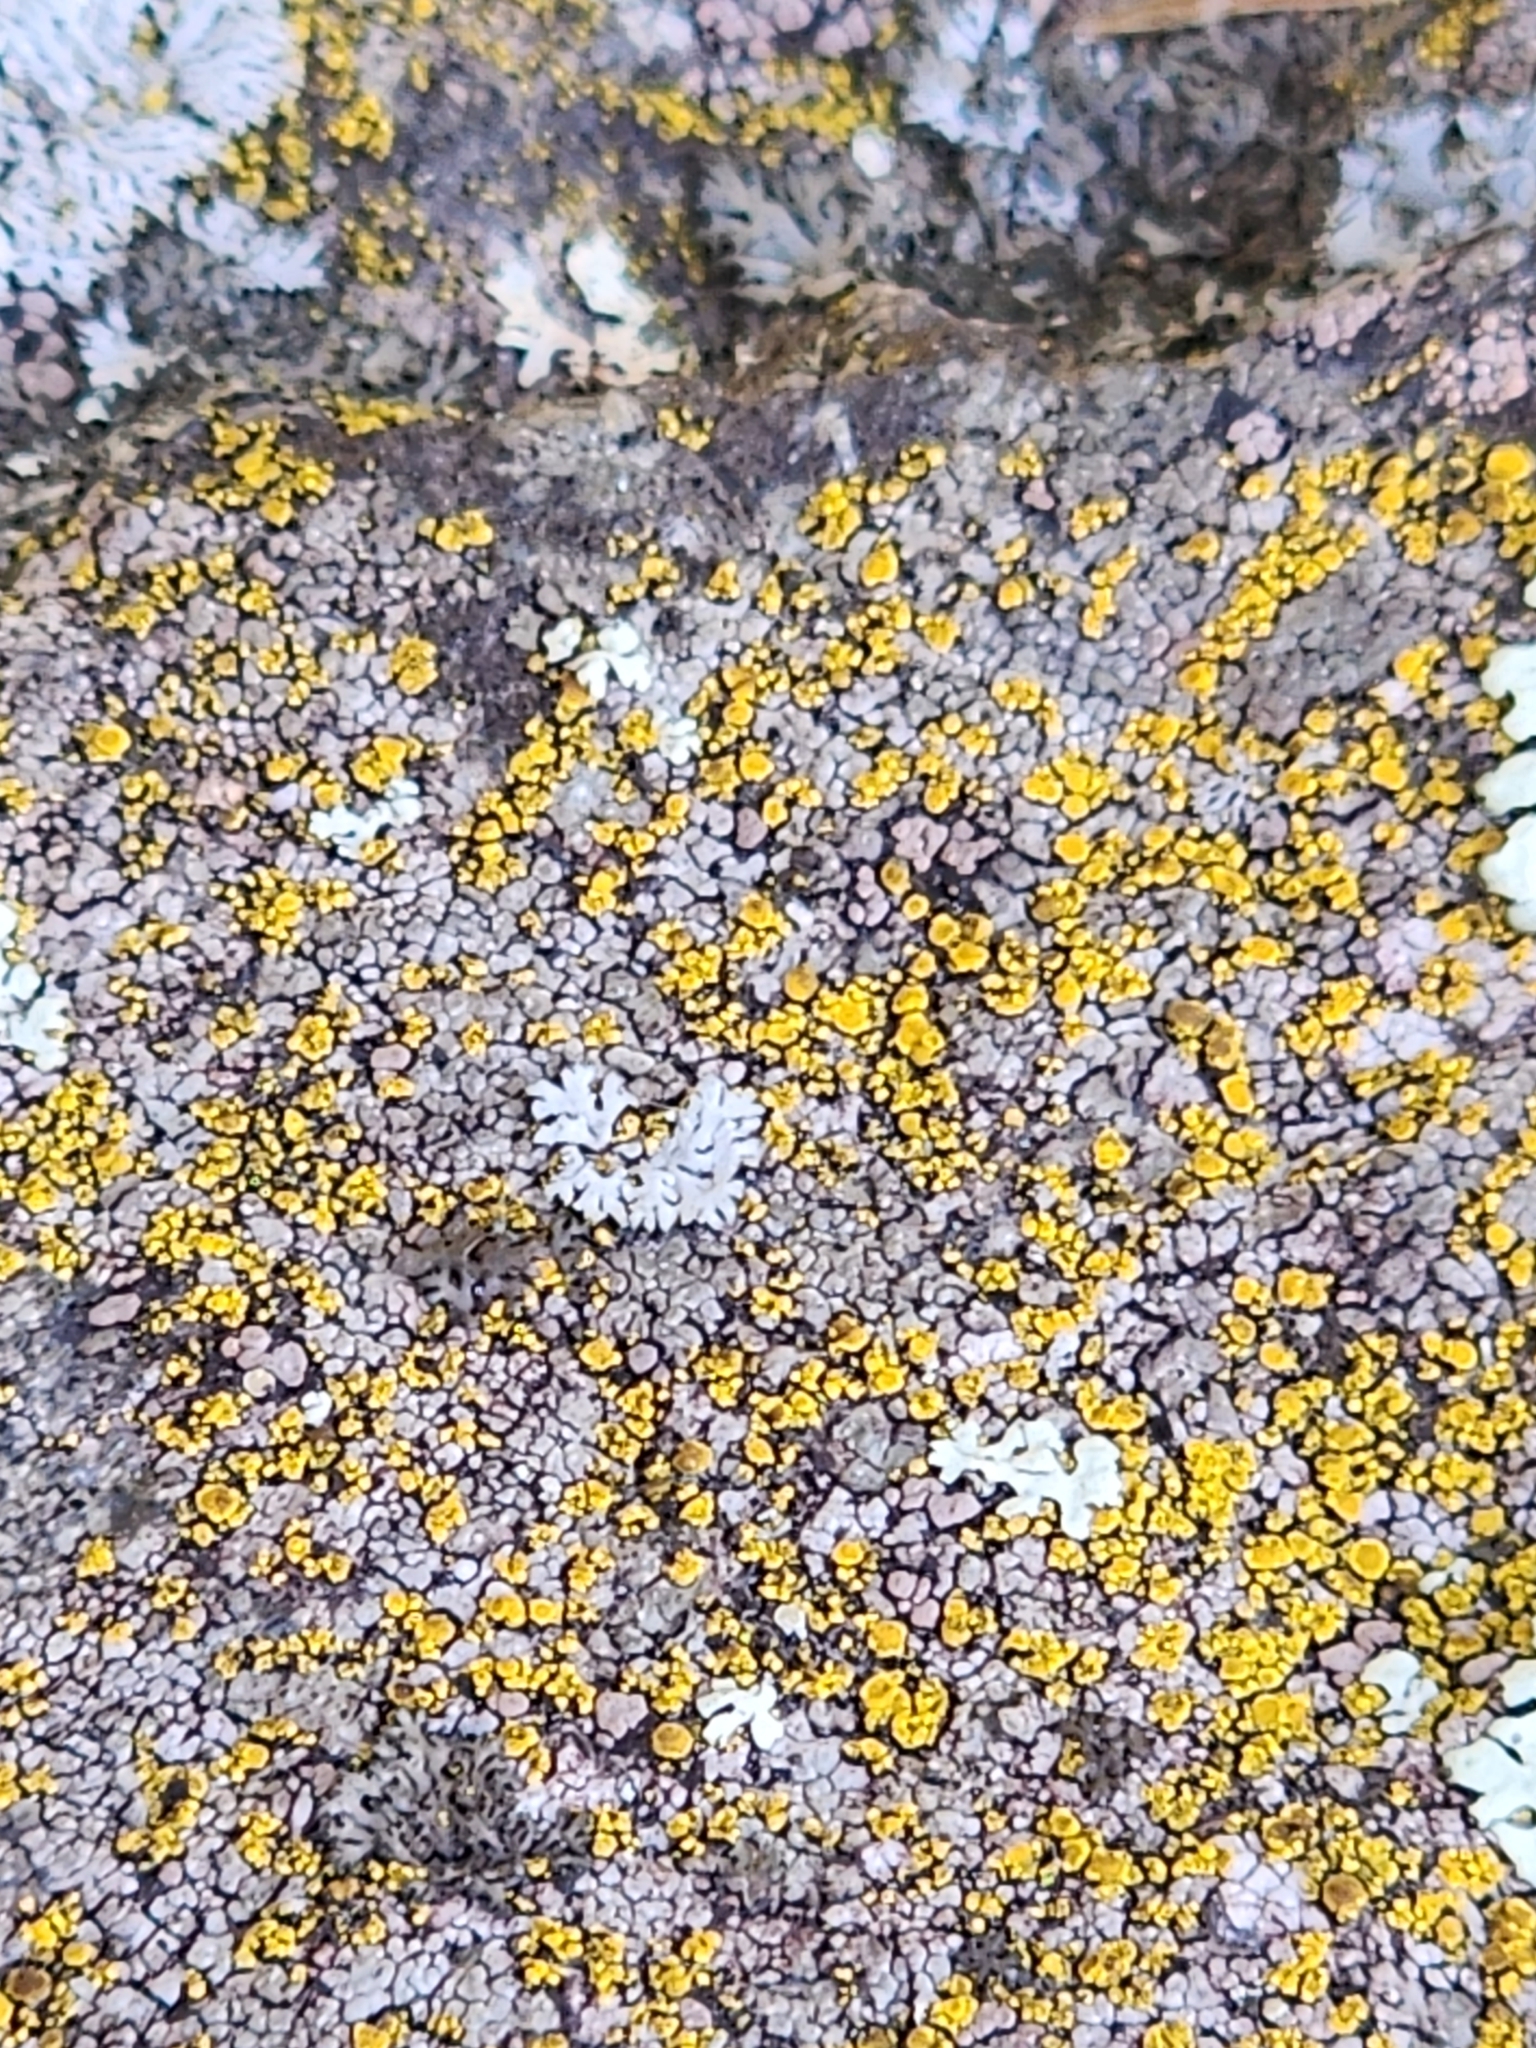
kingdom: Fungi
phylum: Ascomycota
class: Candelariomycetes
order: Candelariales
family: Candelariaceae
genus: Candelariella
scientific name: Candelariella vitellina
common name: Common goldspeck
